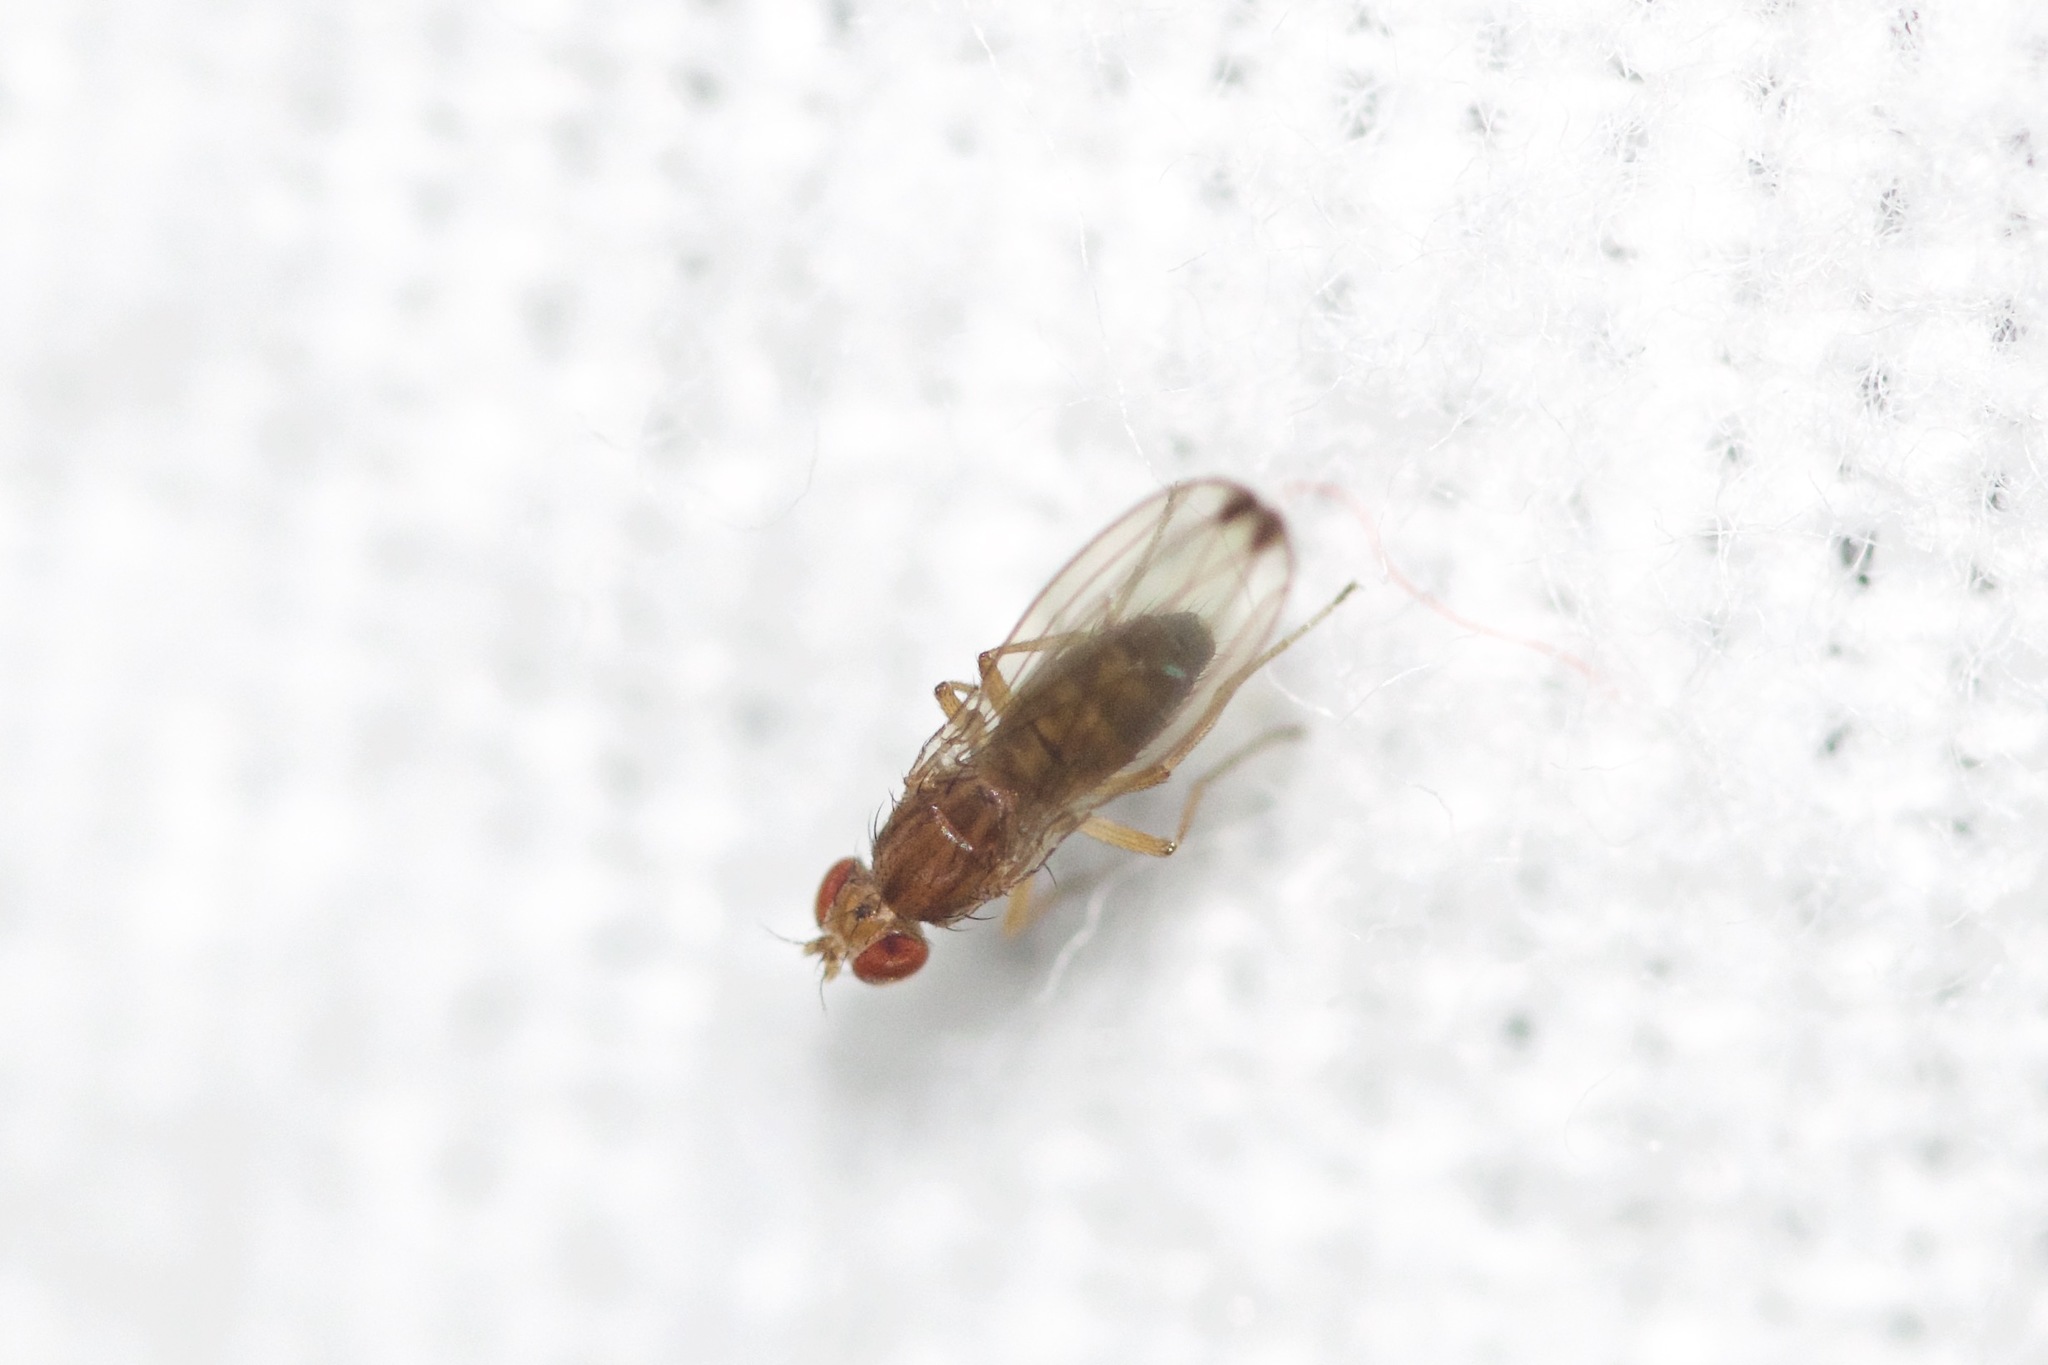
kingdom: Animalia
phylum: Arthropoda
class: Insecta
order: Diptera
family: Drosophilidae
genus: Scaptomyza
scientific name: Scaptomyza adusta
